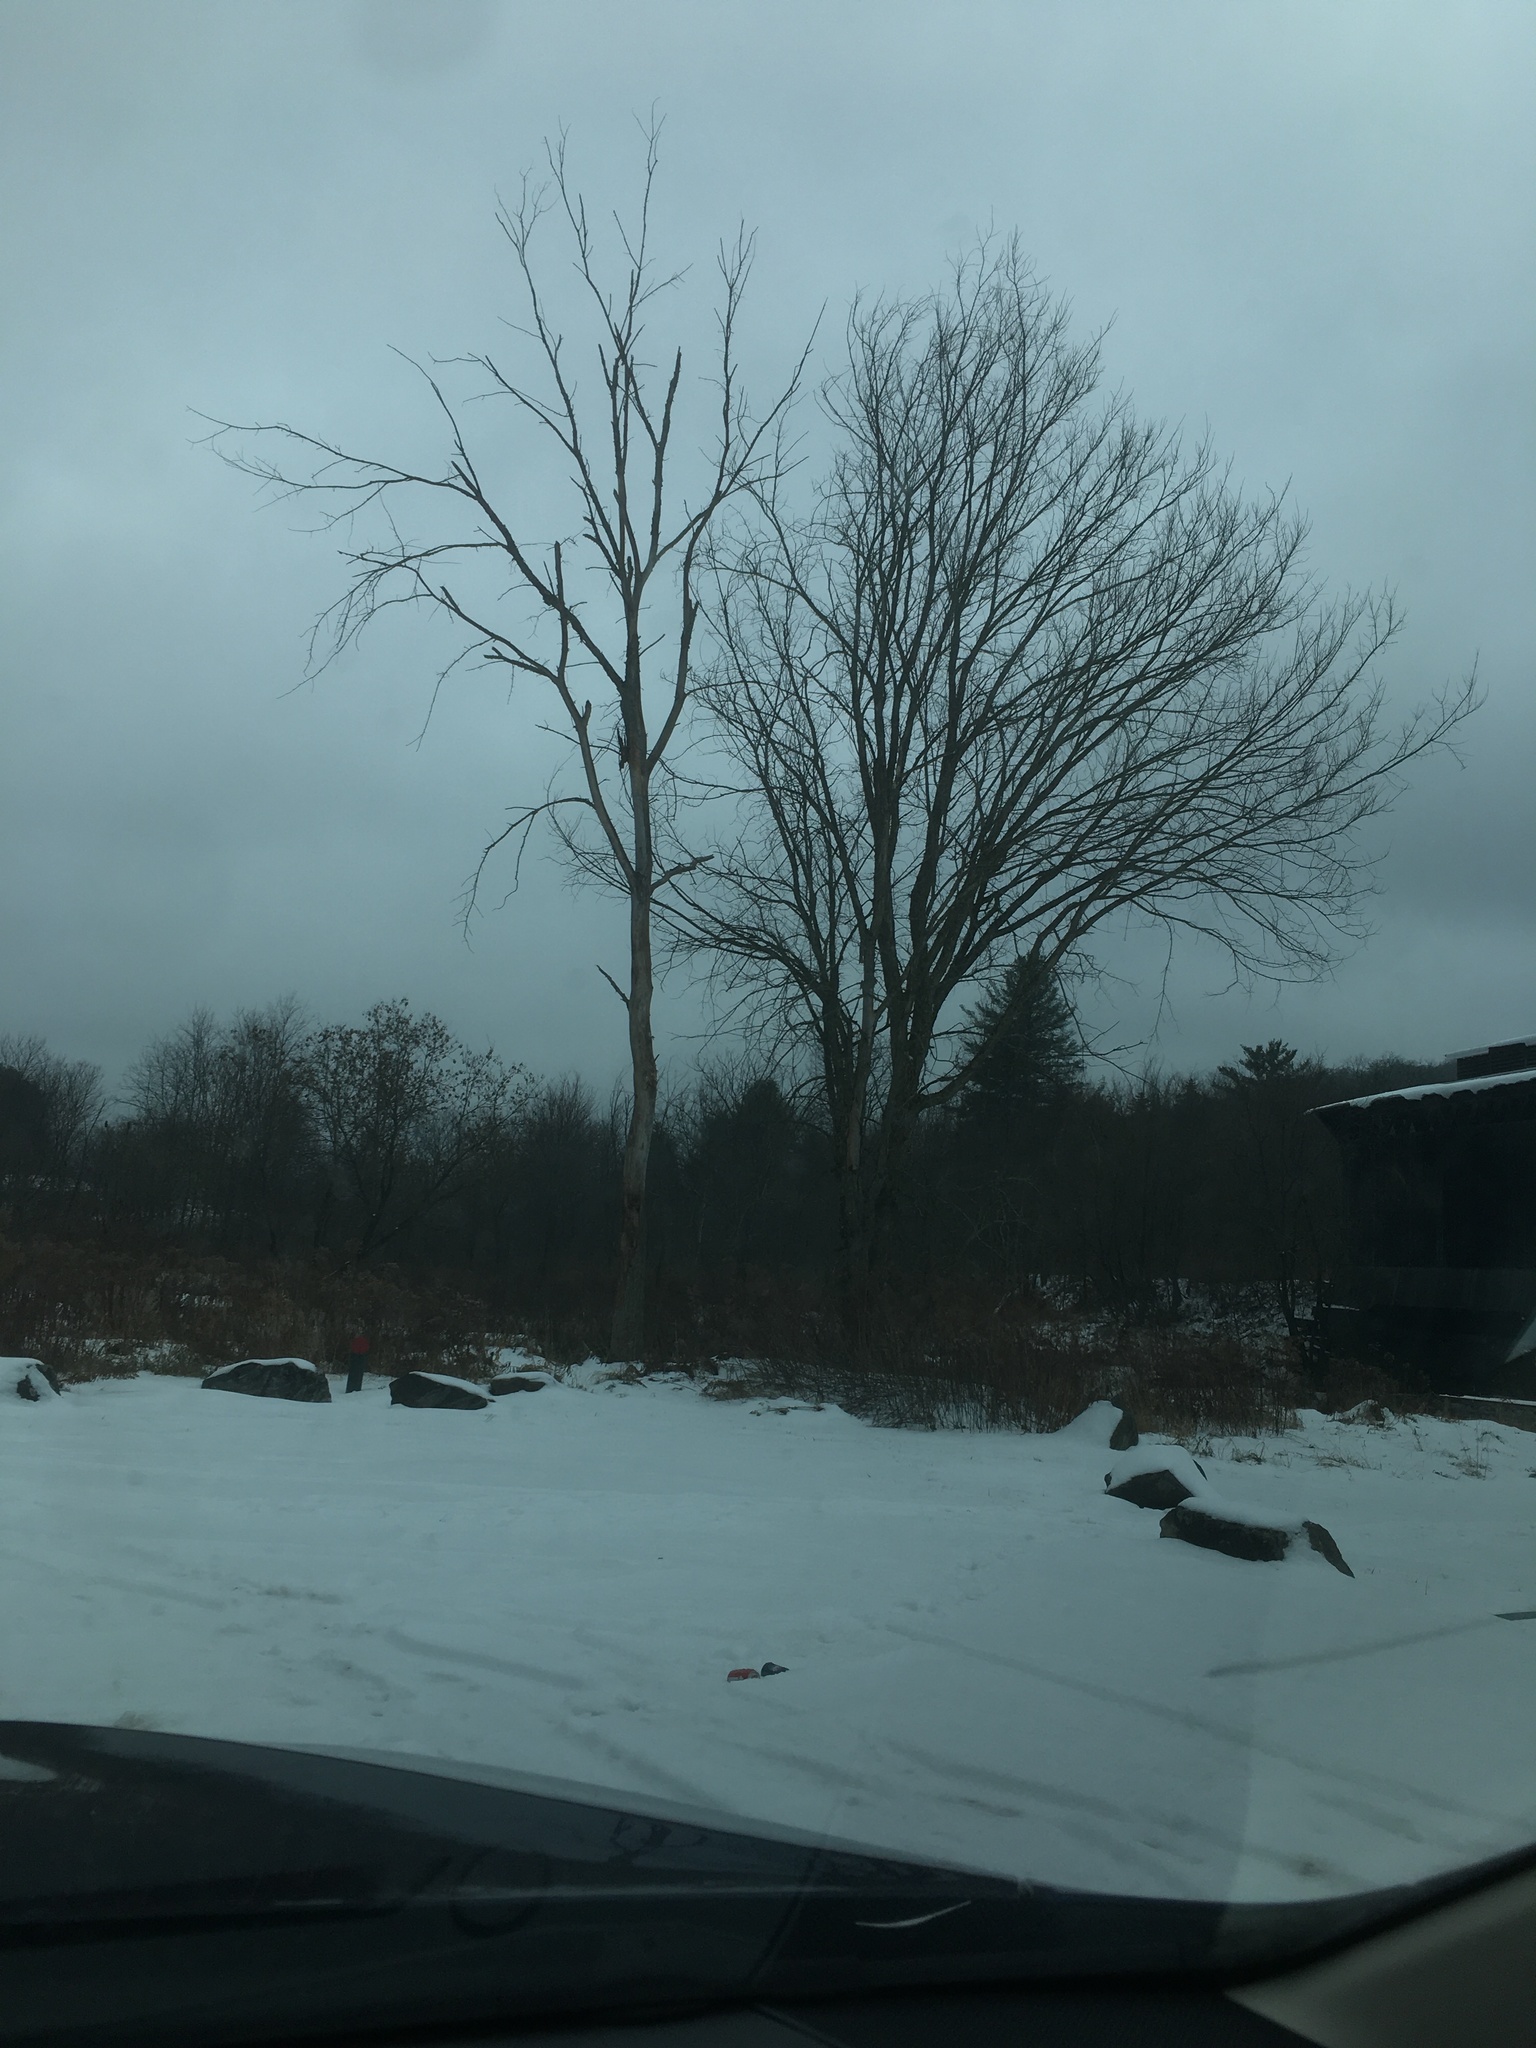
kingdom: Plantae
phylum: Tracheophyta
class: Magnoliopsida
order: Rosales
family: Ulmaceae
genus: Ulmus
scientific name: Ulmus americana
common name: American elm
